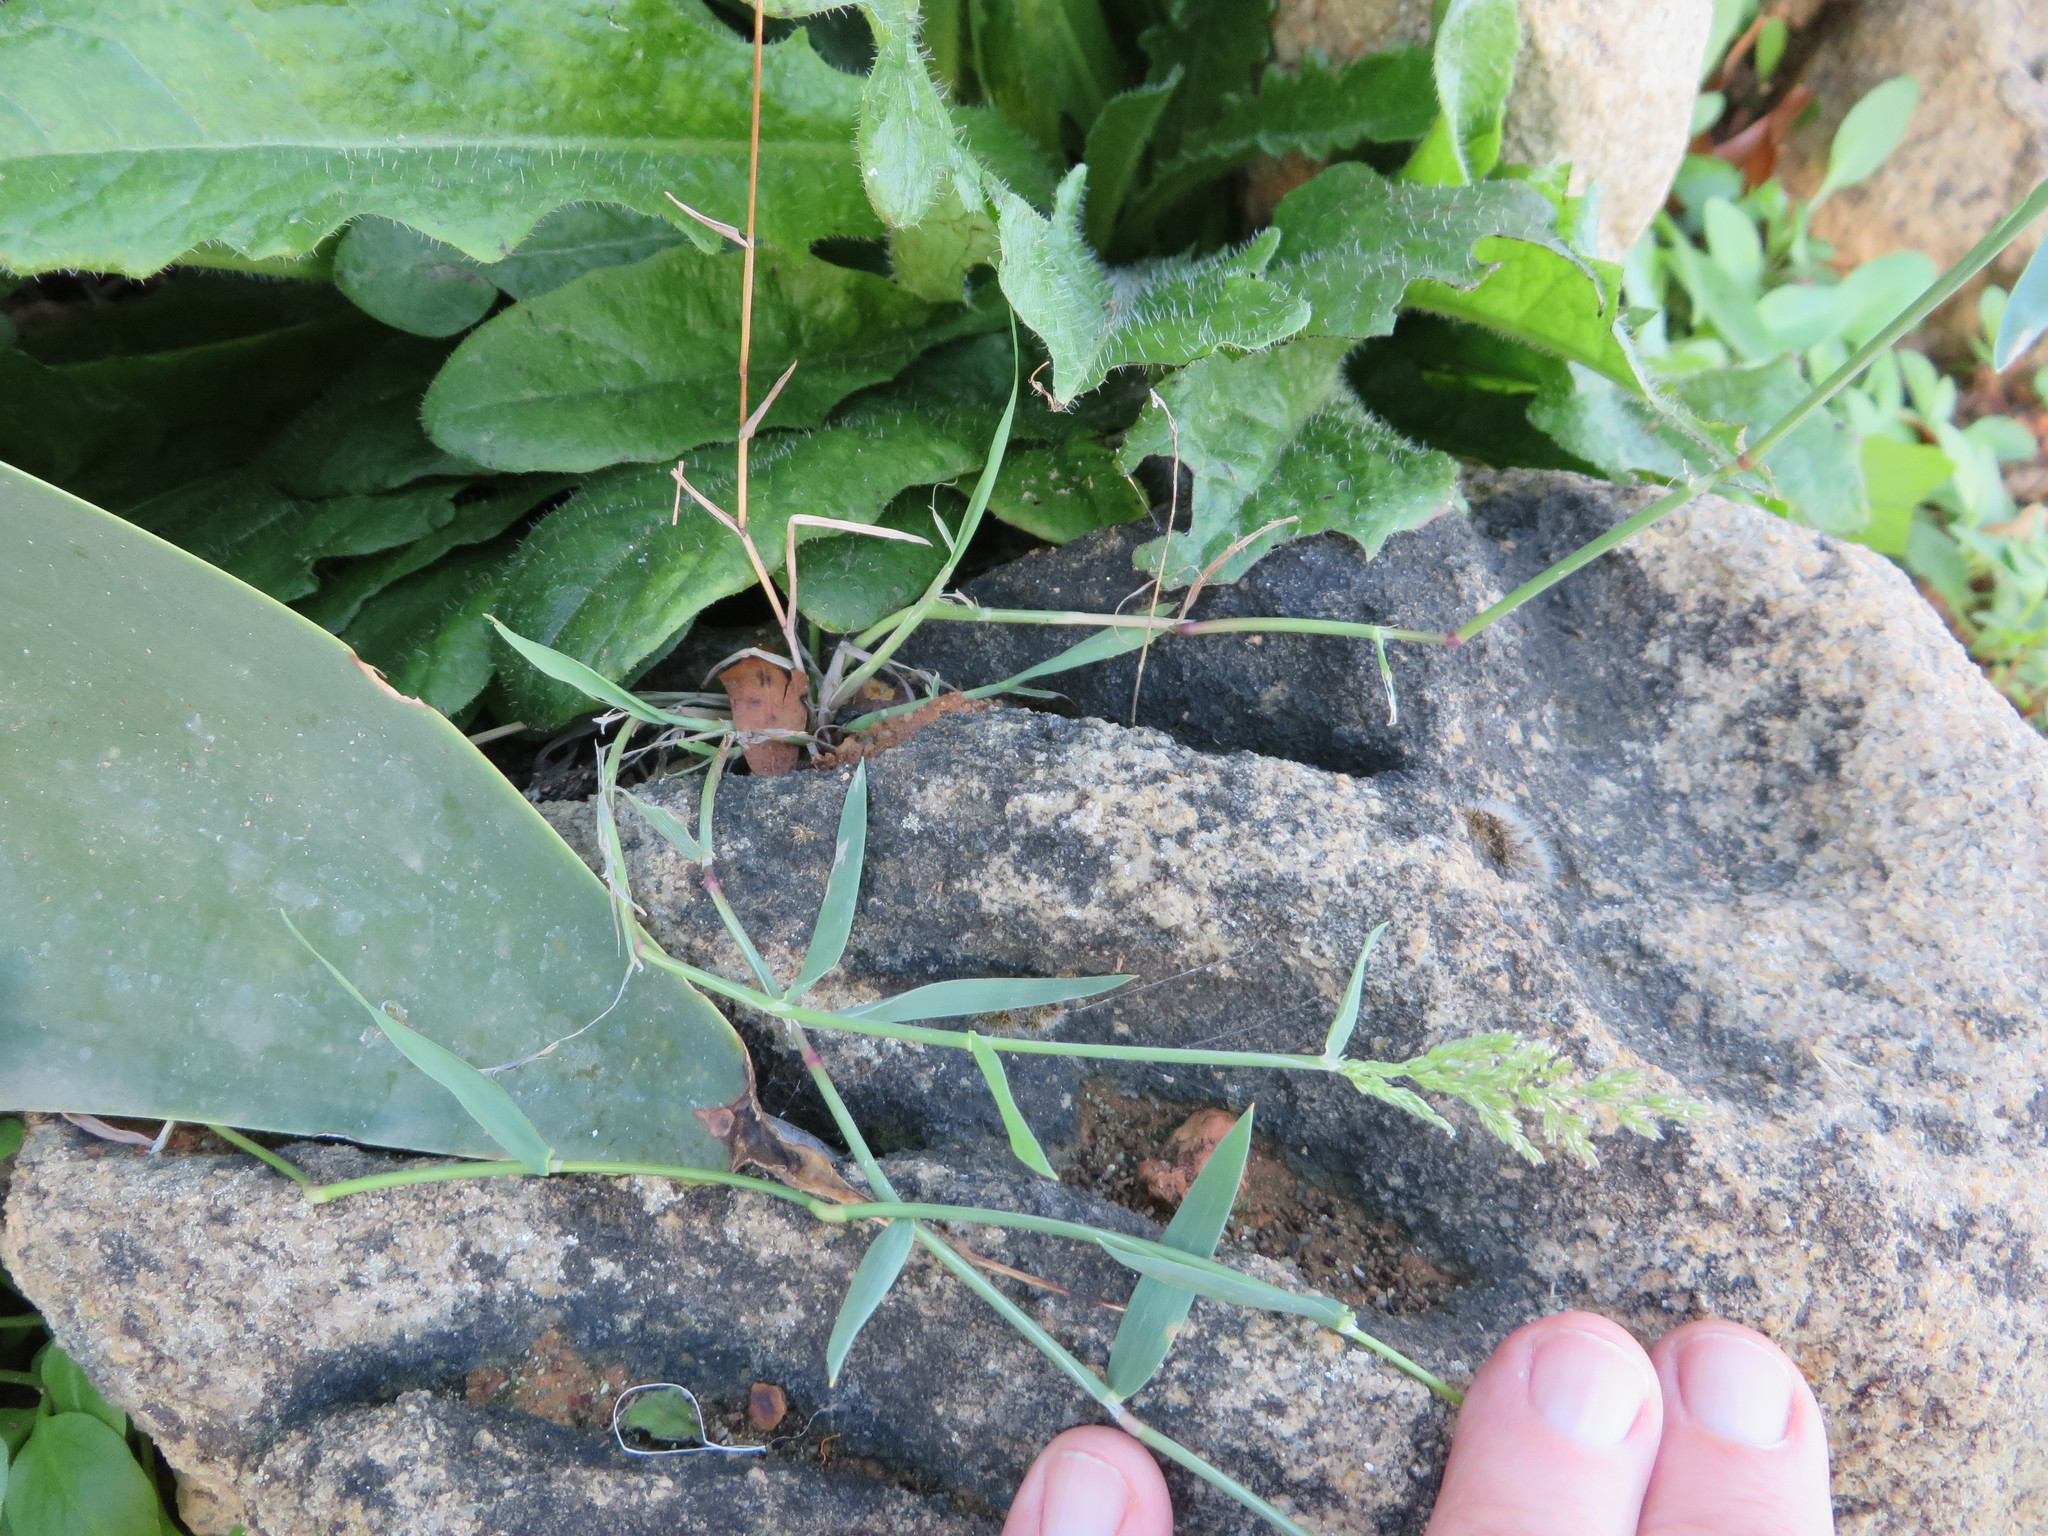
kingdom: Plantae
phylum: Tracheophyta
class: Liliopsida
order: Poales
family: Poaceae
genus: Polypogon
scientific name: Polypogon viridis
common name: Water bent
